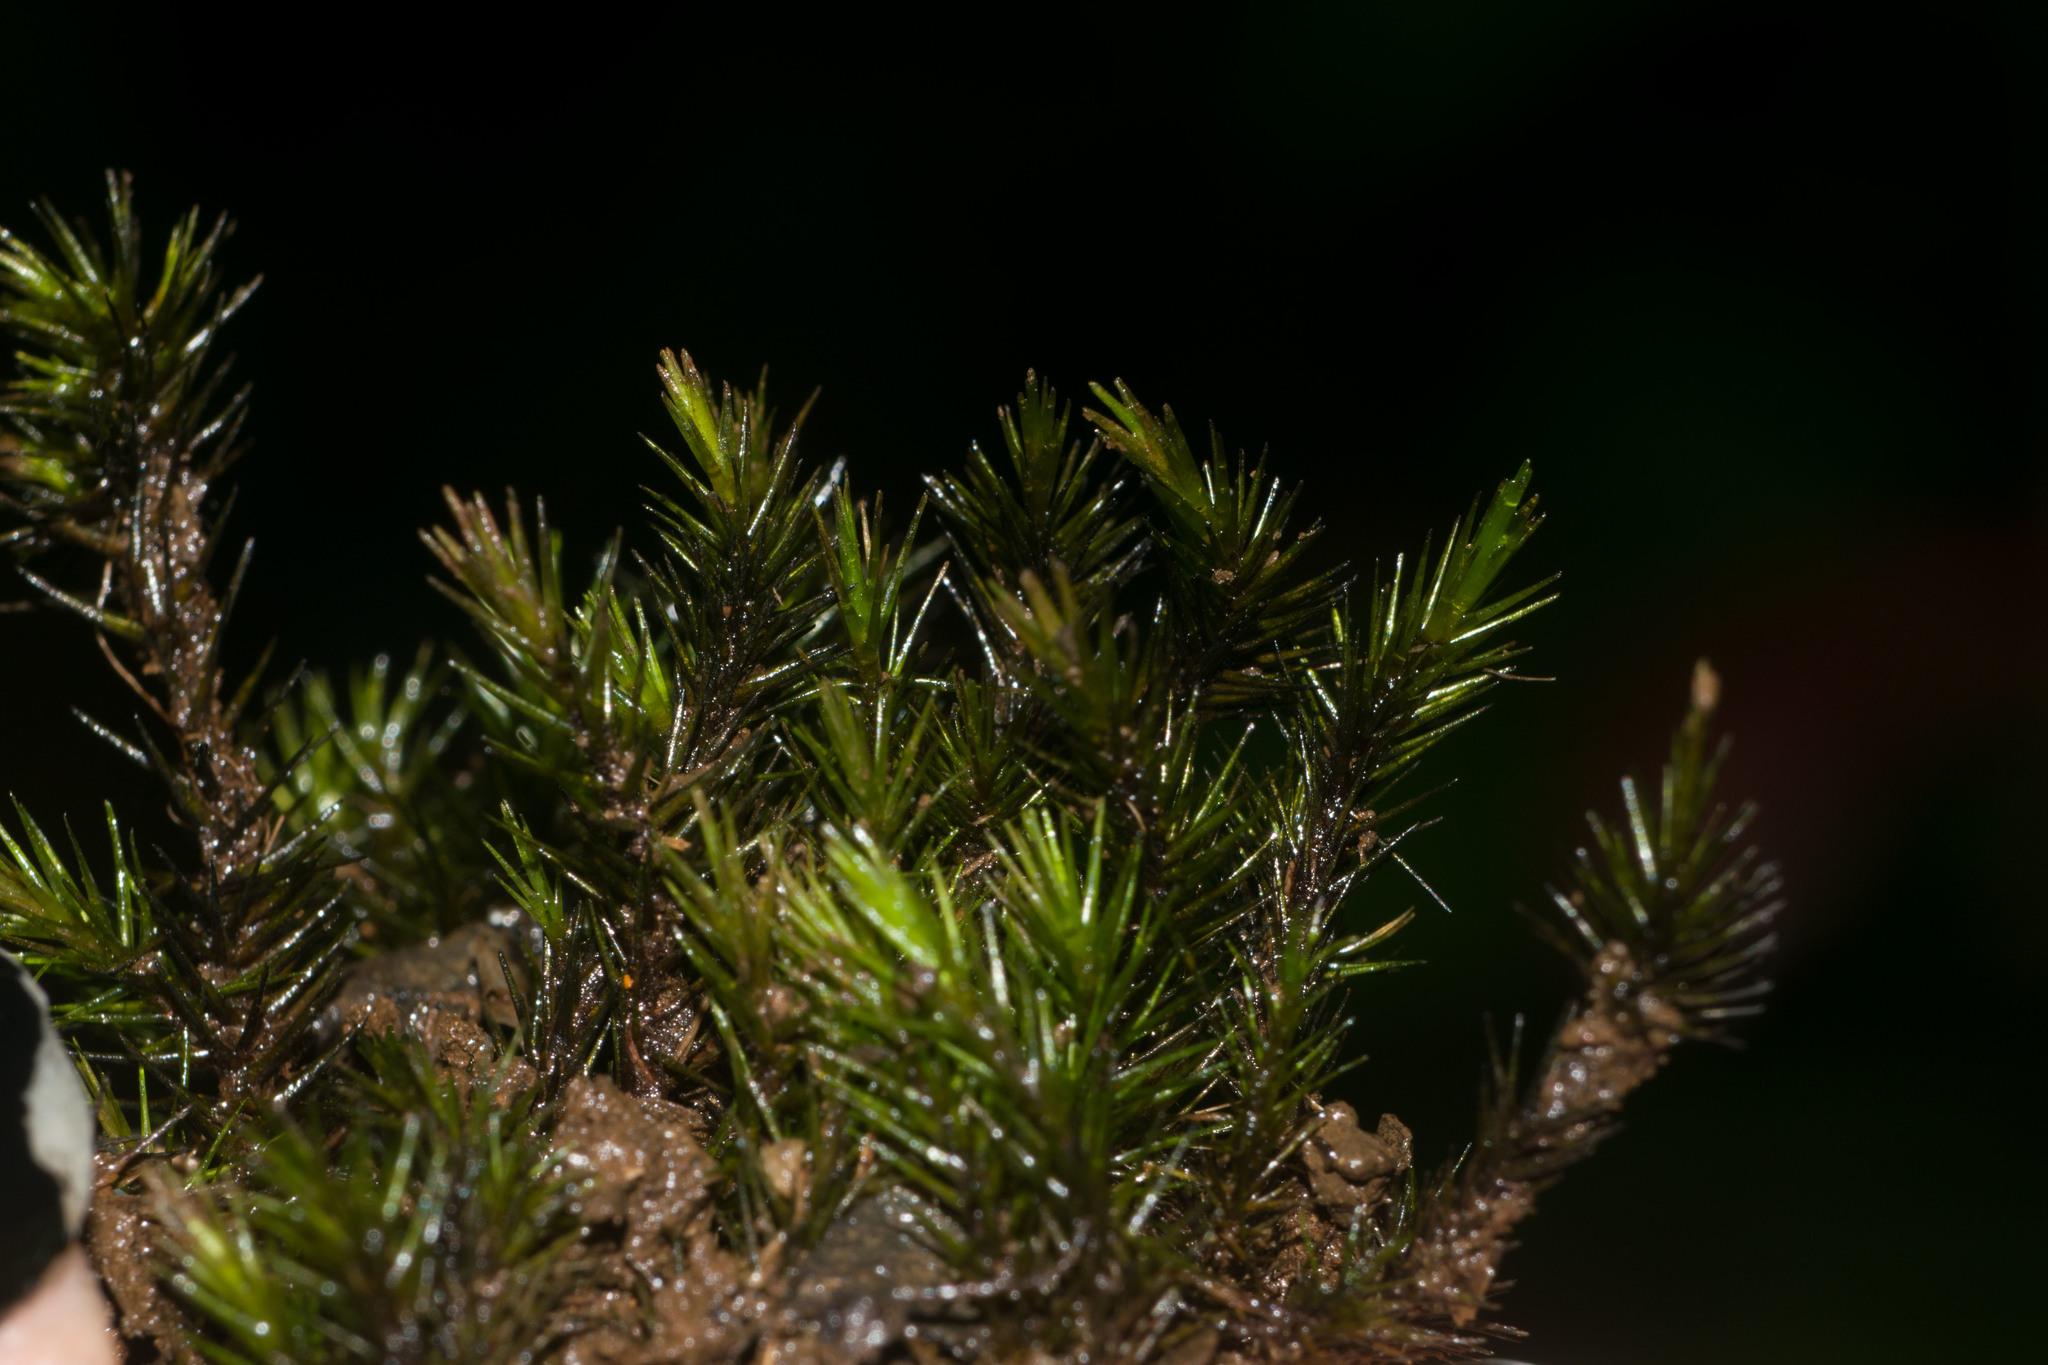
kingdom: Plantae
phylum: Bryophyta
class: Bryopsida
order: Dicranales
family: Leucobryaceae
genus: Campylopus
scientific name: Campylopus umbellatus
